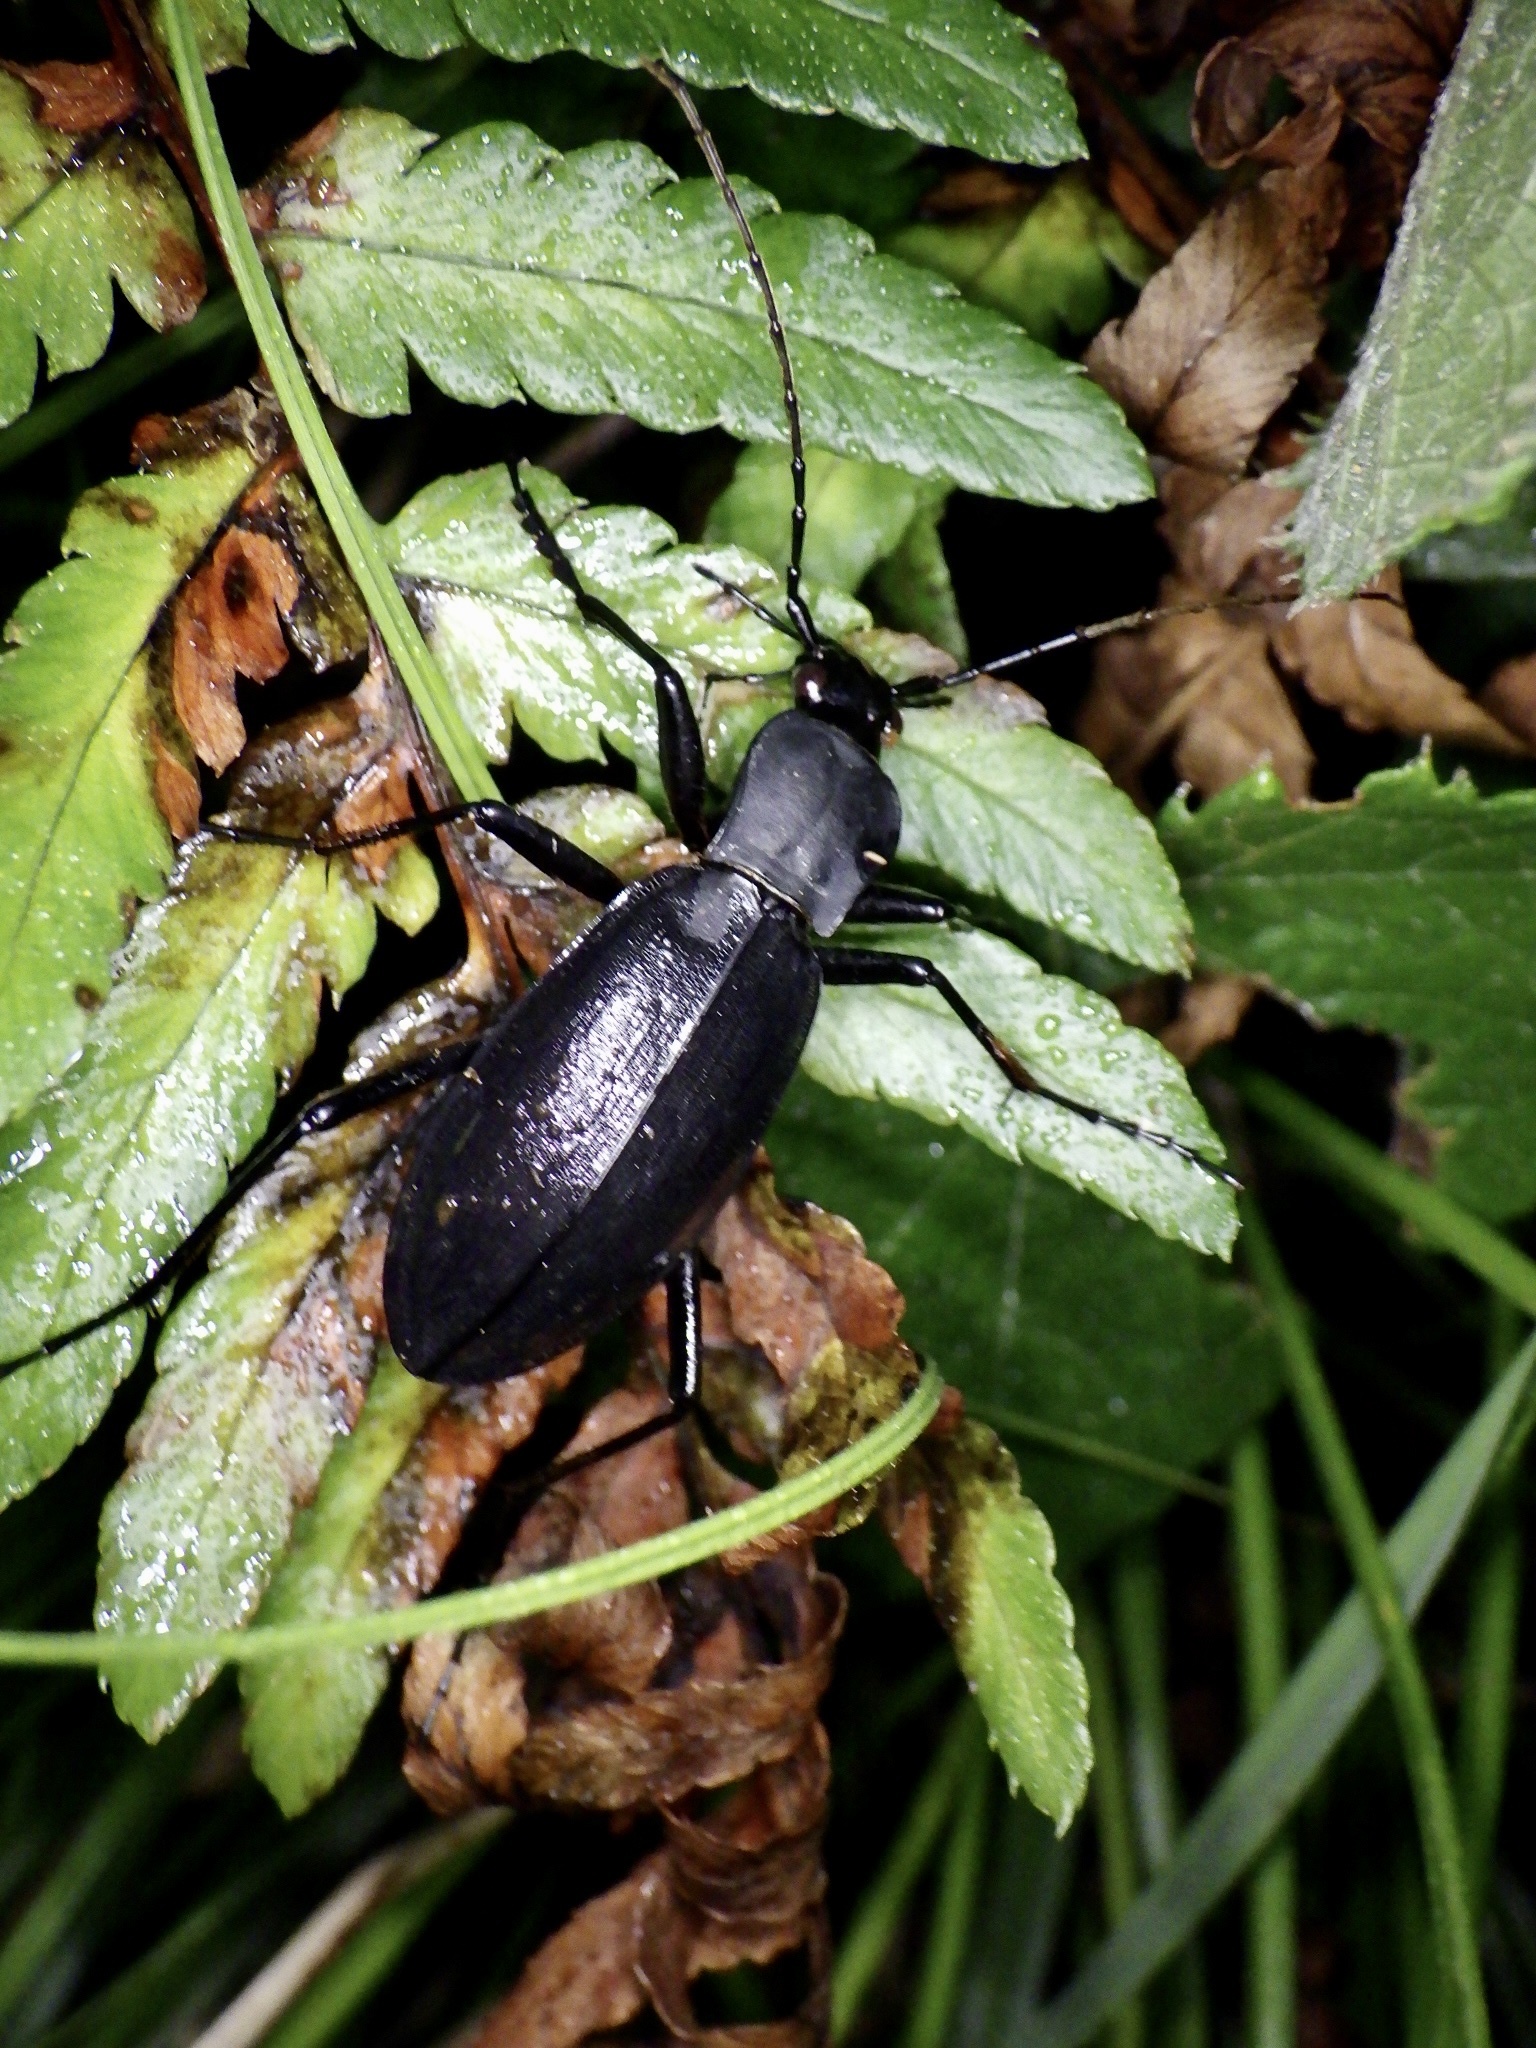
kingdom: Animalia
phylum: Arthropoda
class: Insecta
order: Coleoptera
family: Carabidae
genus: Carabus
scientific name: Carabus procerulus
